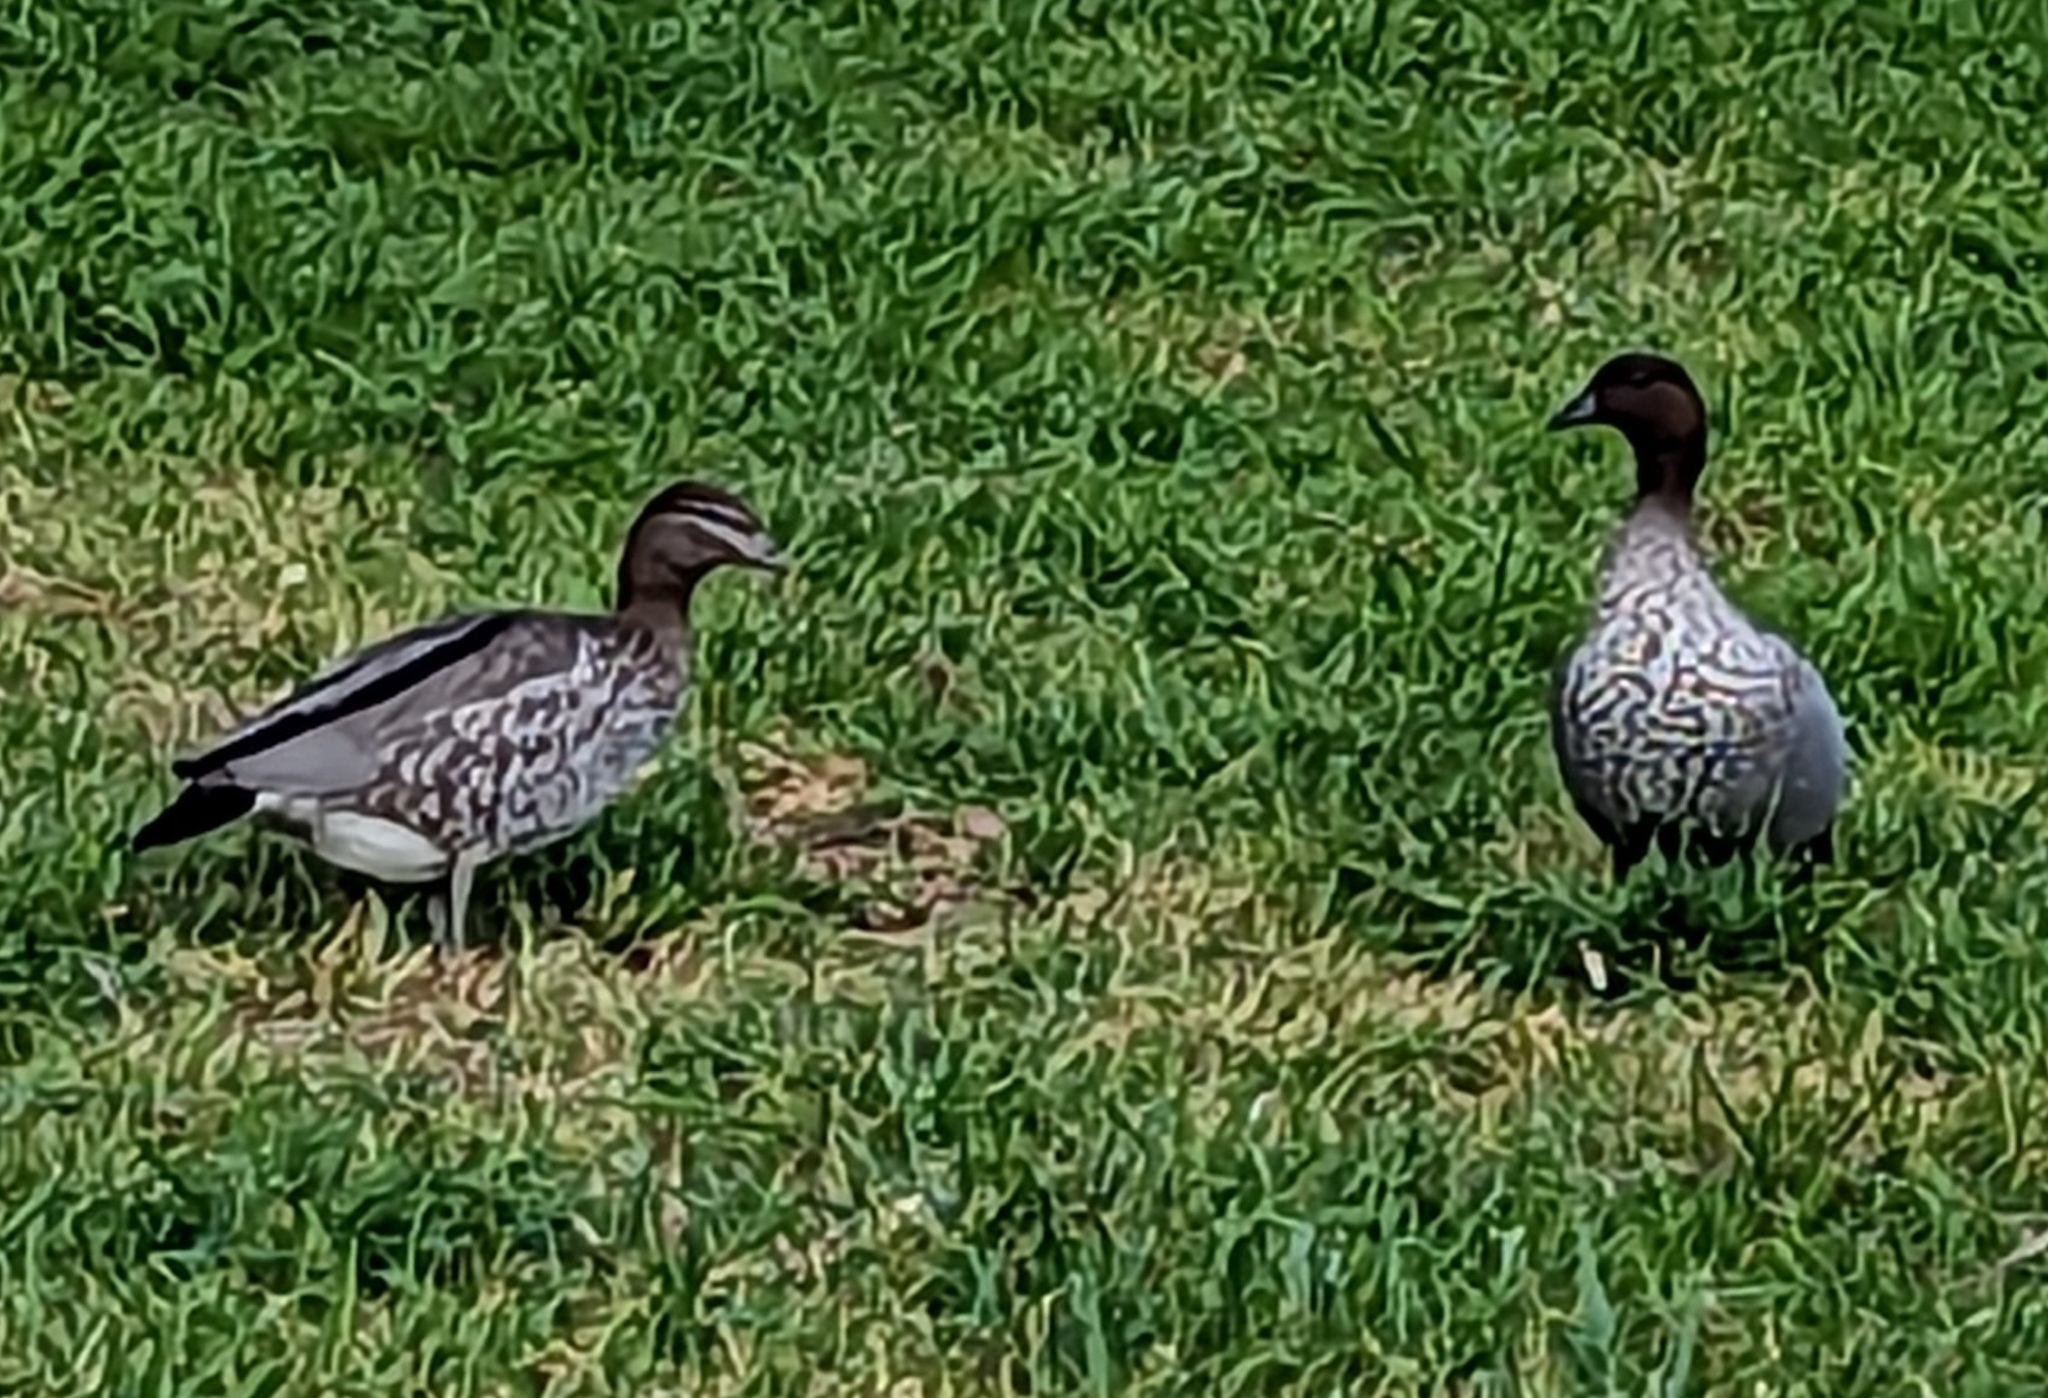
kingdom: Animalia
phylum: Chordata
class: Aves
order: Anseriformes
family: Anatidae
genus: Chenonetta
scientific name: Chenonetta jubata
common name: Maned duck
